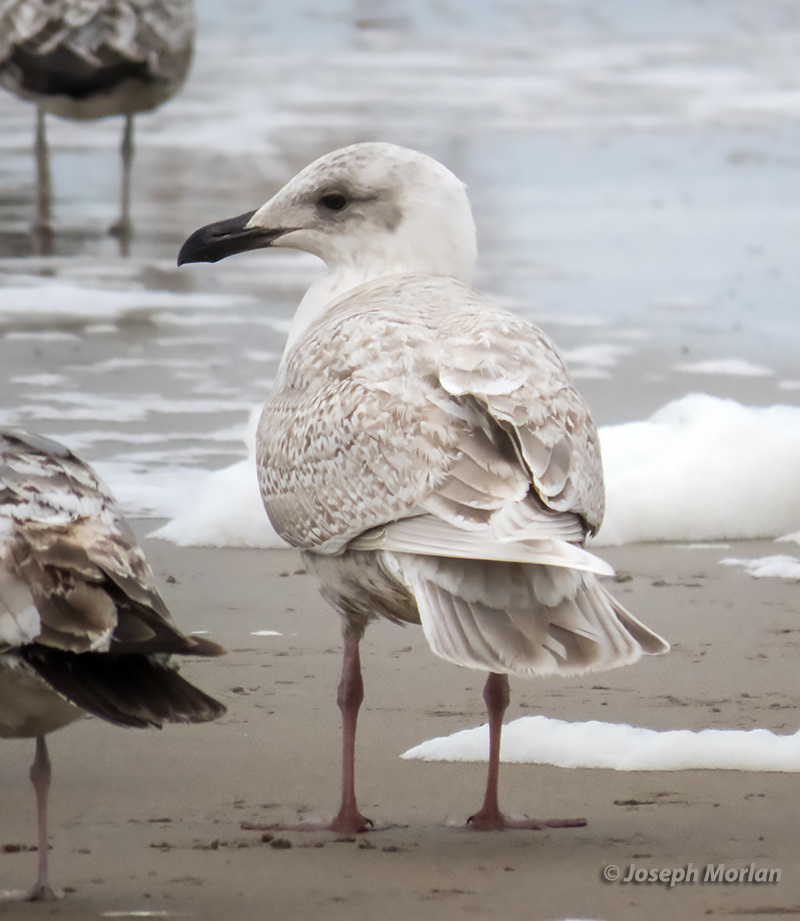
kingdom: Animalia
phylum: Chordata
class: Aves
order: Charadriiformes
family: Laridae
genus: Larus
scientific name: Larus glaucescens
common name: Glaucous-winged gull
